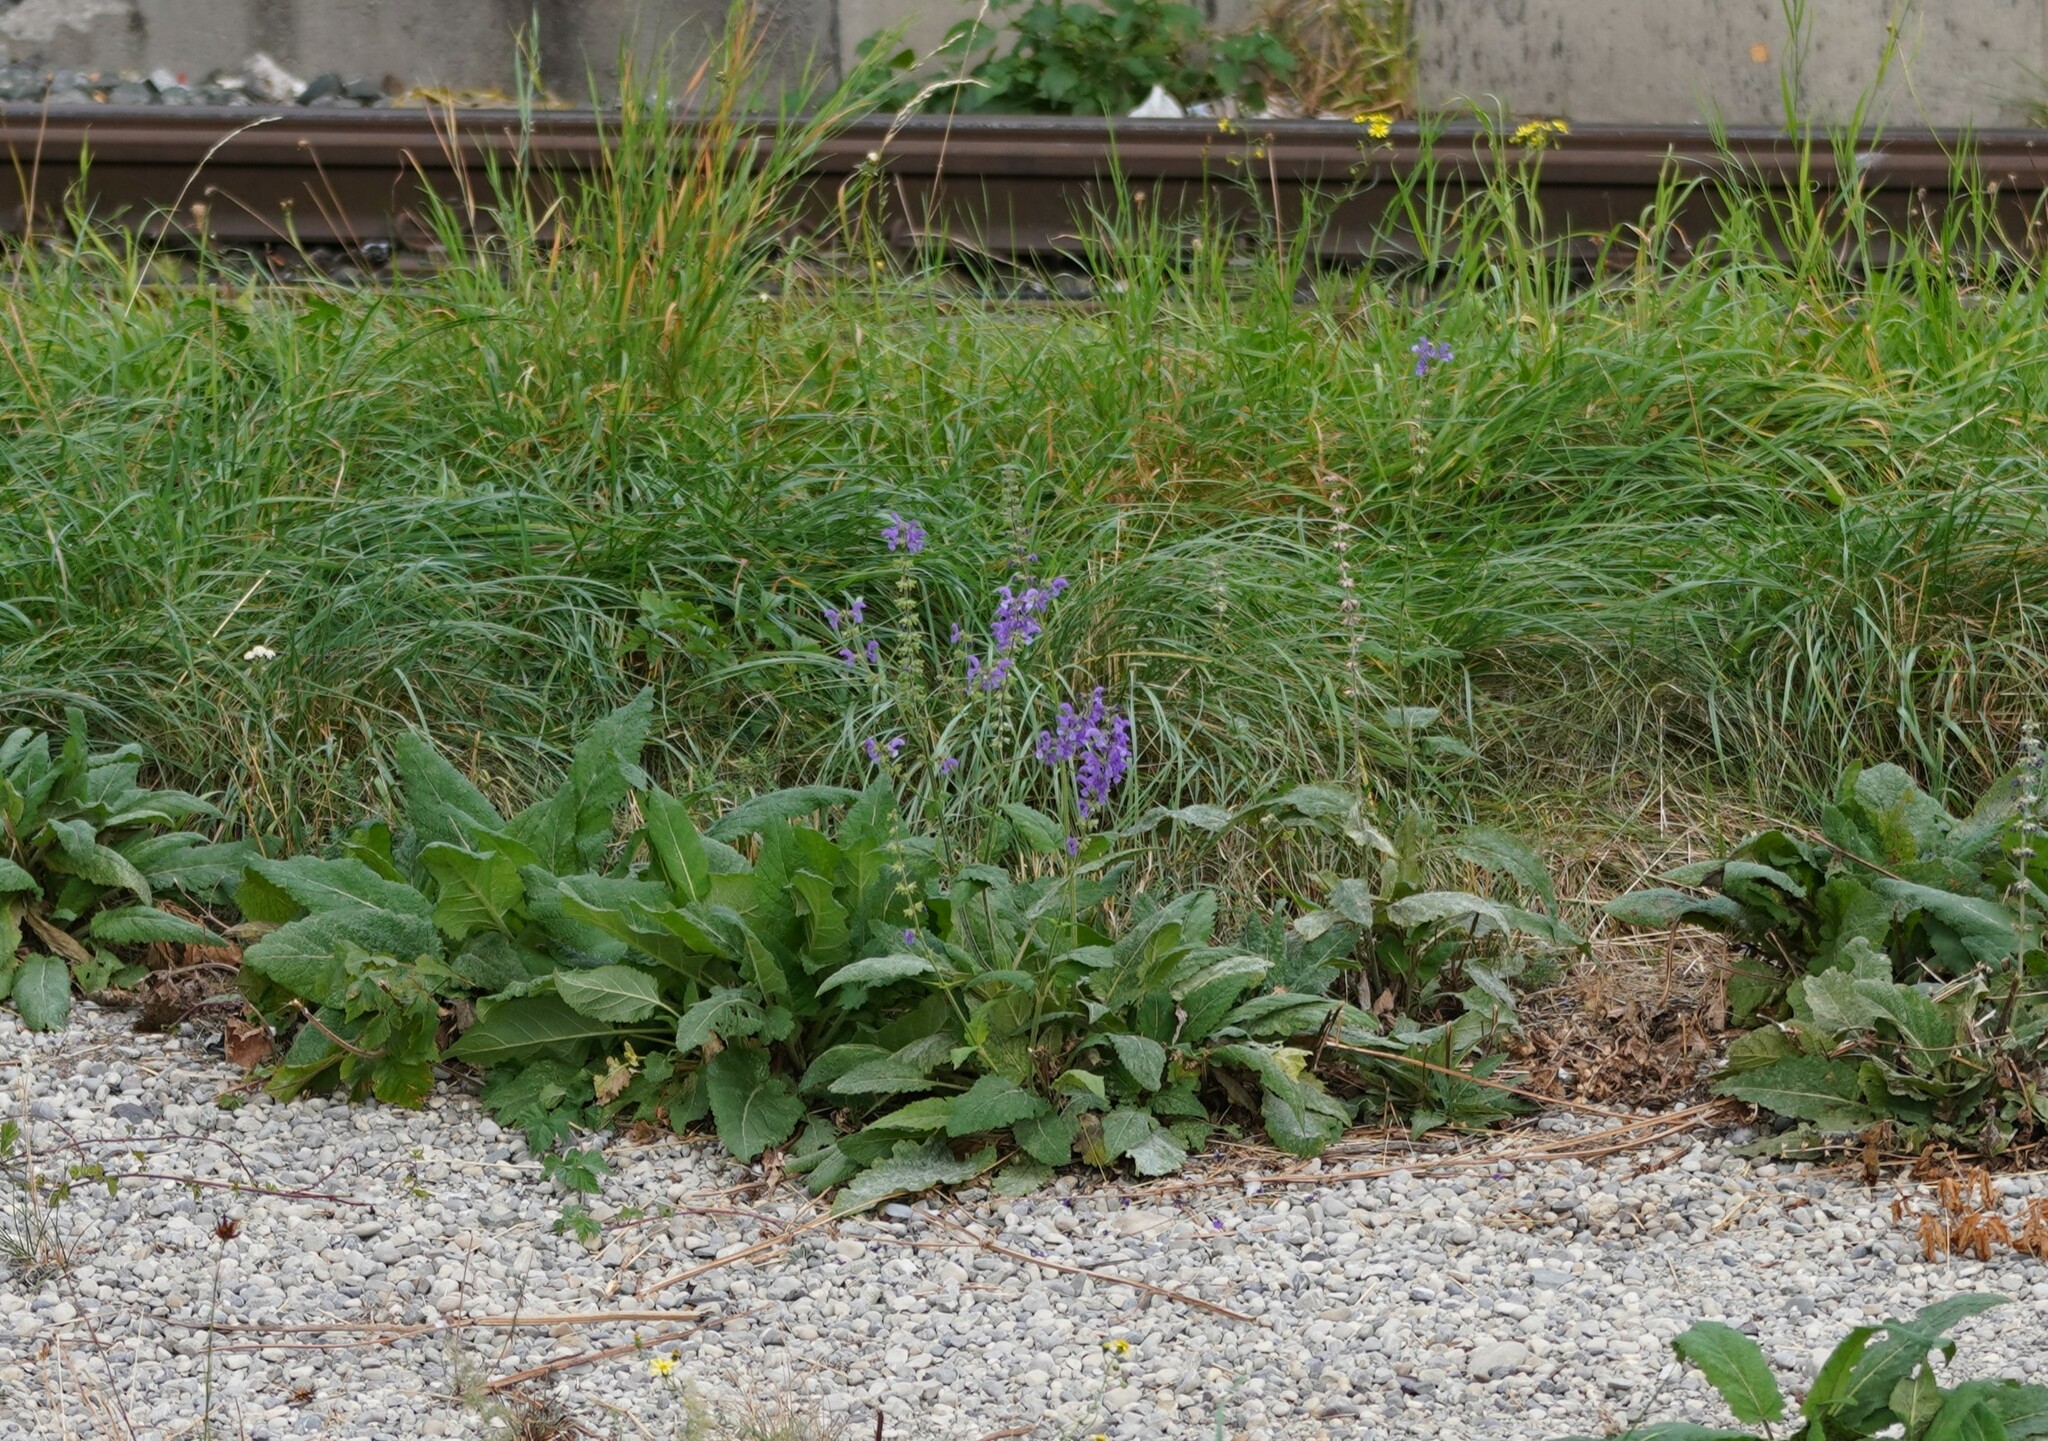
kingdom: Plantae
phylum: Tracheophyta
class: Magnoliopsida
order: Lamiales
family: Lamiaceae
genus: Salvia
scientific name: Salvia pratensis
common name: Meadow sage
